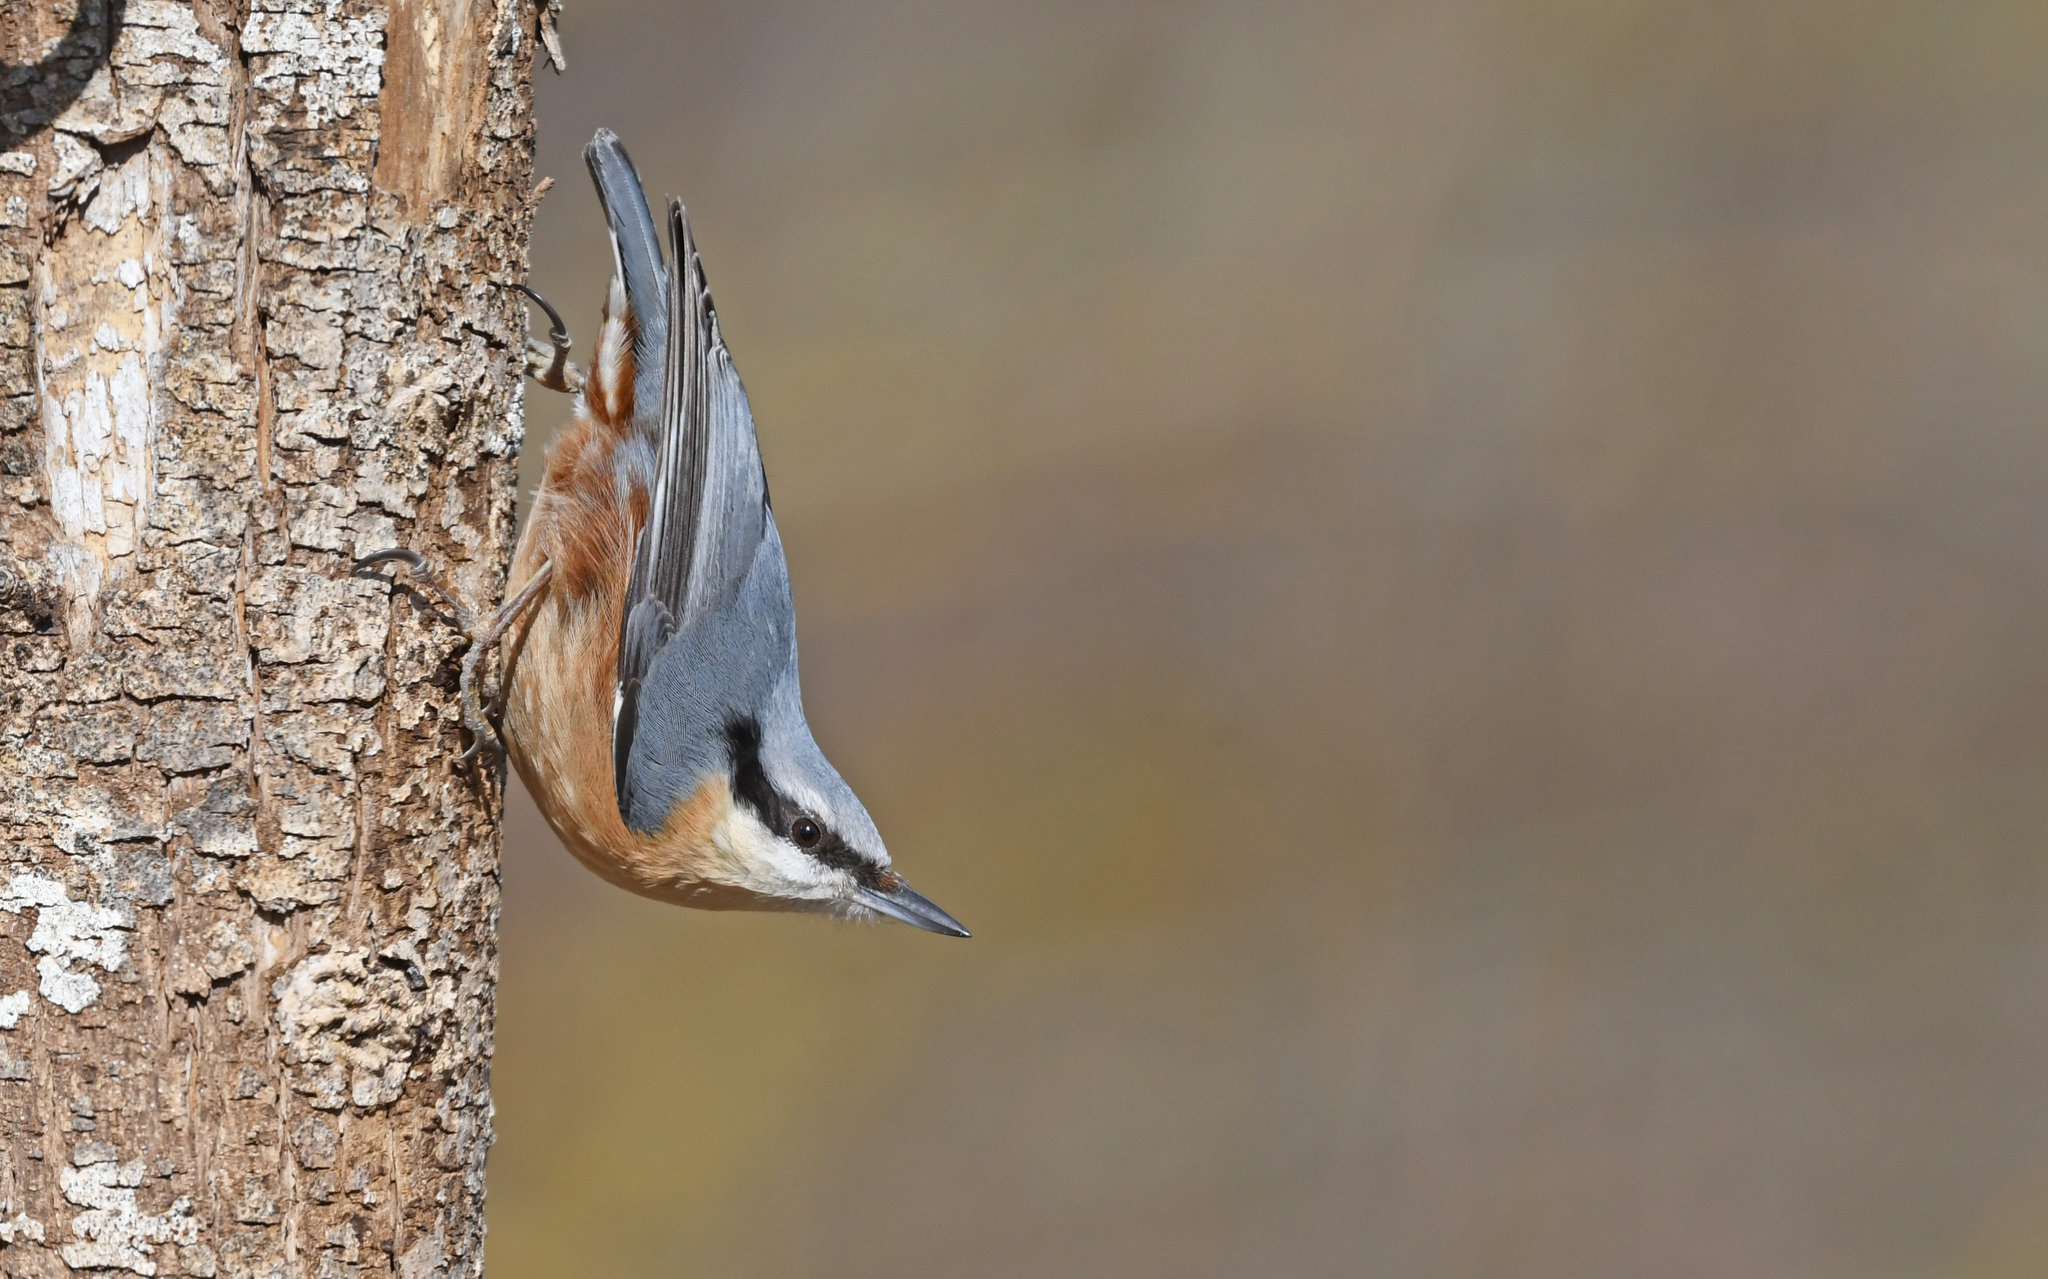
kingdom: Animalia
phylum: Chordata
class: Aves
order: Passeriformes
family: Sittidae
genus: Sitta
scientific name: Sitta europaea
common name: Eurasian nuthatch
